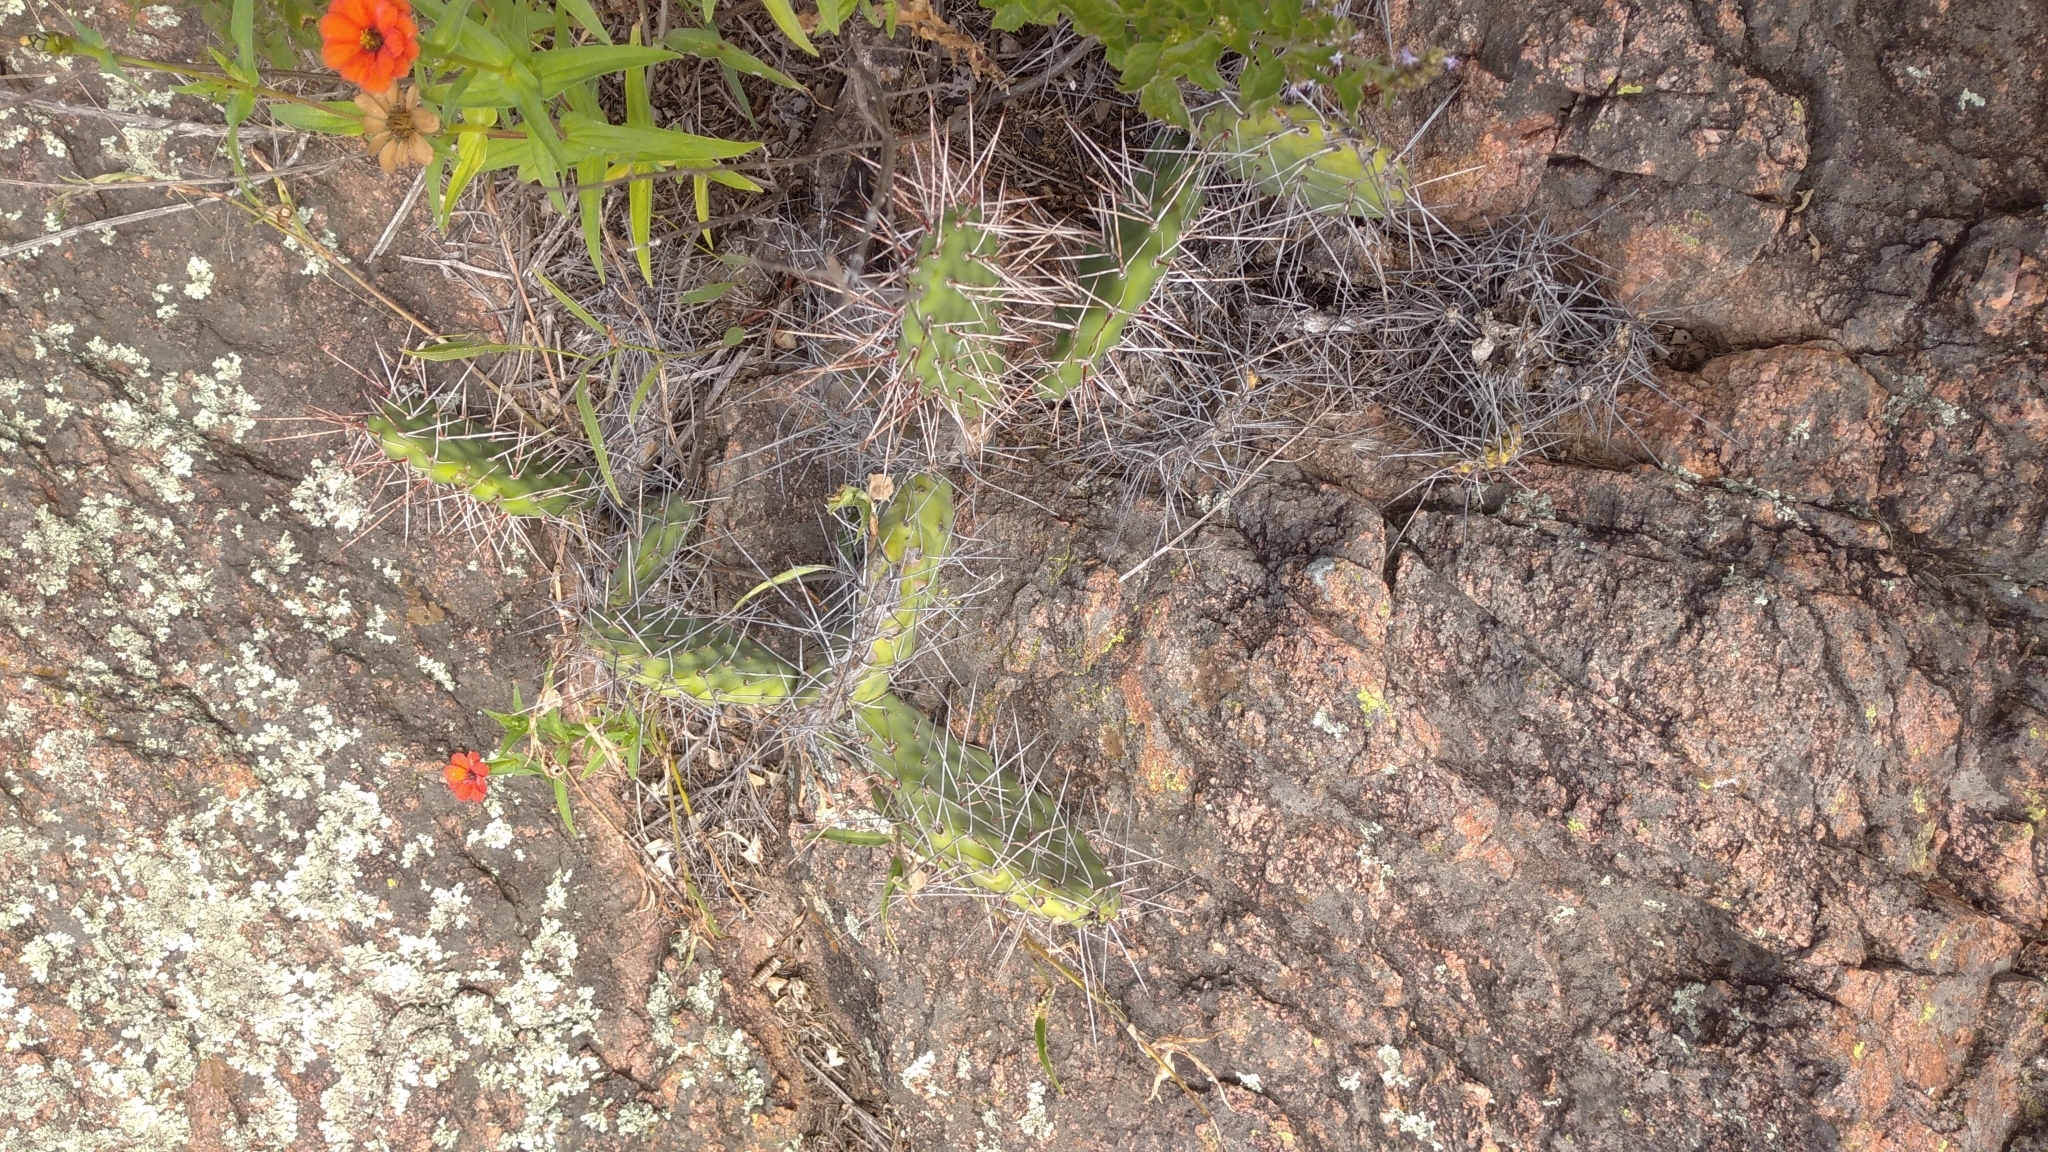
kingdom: Plantae
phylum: Tracheophyta
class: Magnoliopsida
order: Caryophyllales
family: Cactaceae
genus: Opuntia
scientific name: Opuntia sulphurea
